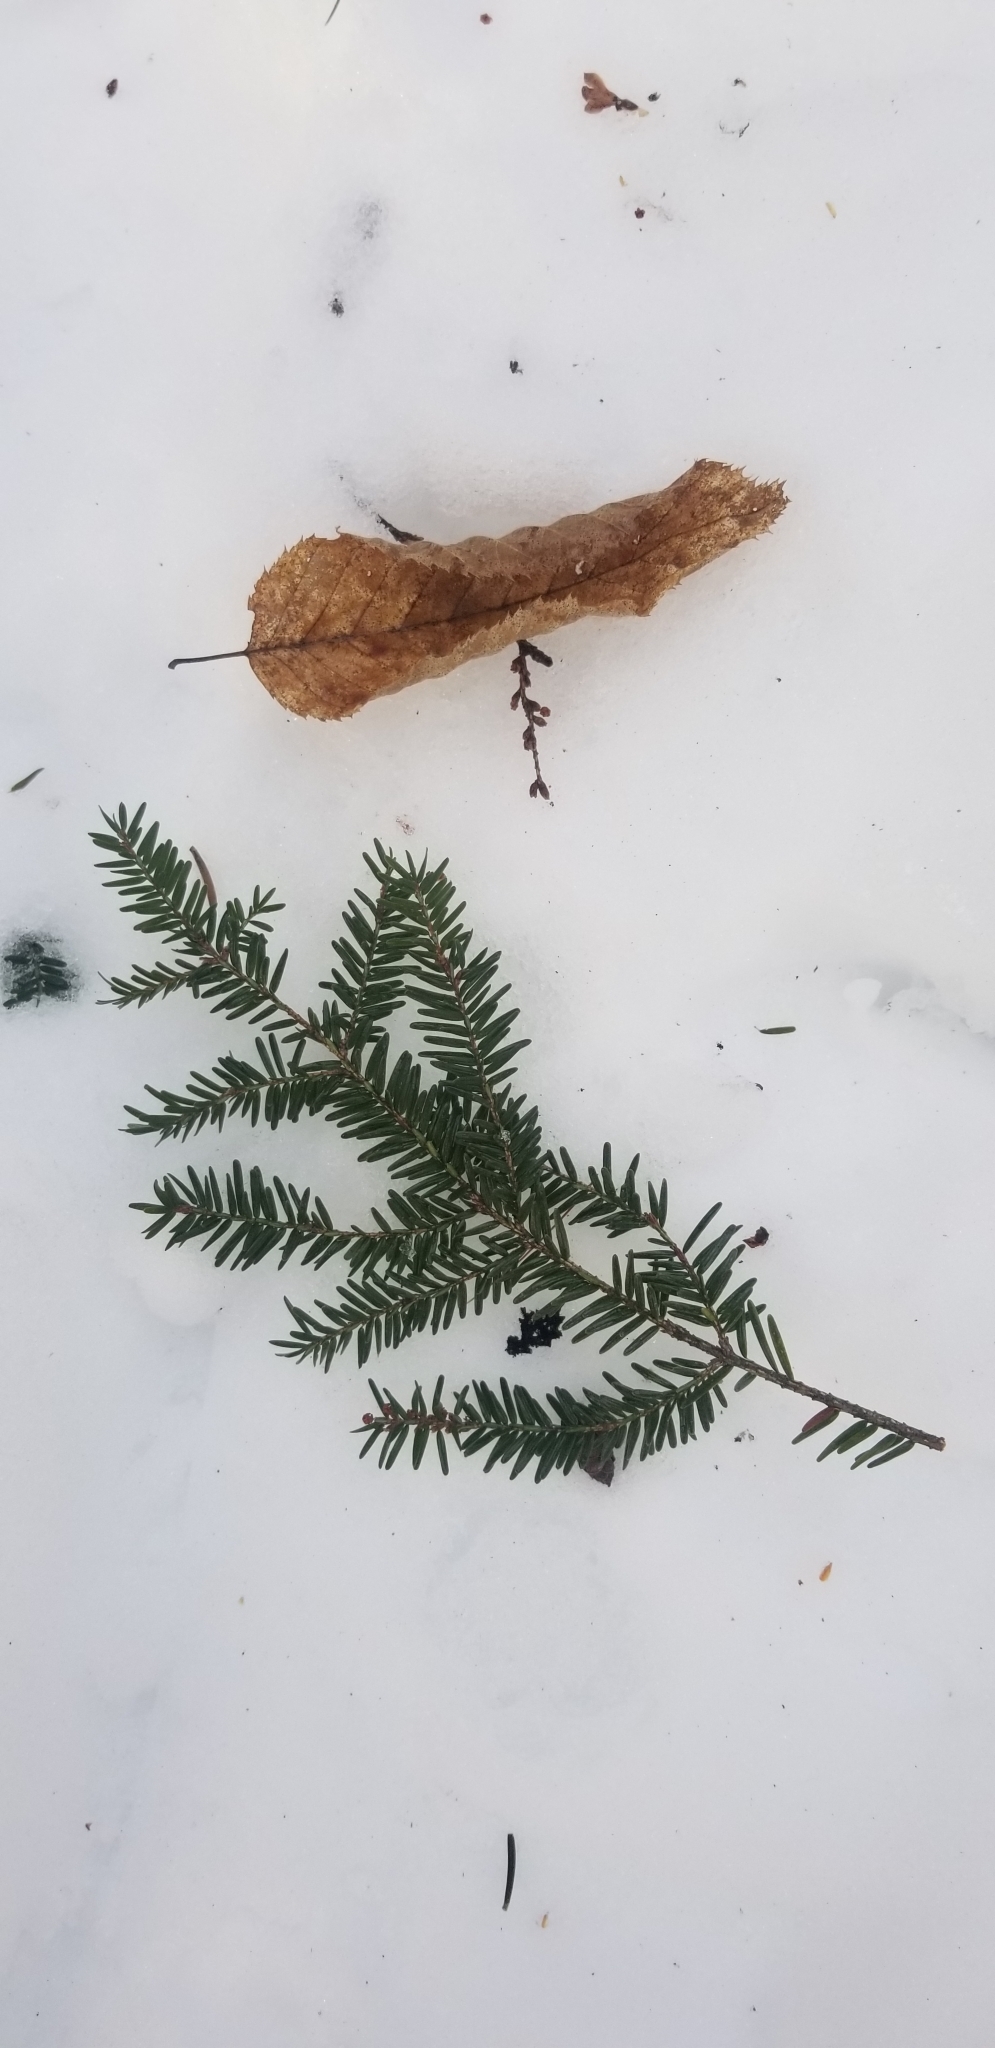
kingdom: Plantae
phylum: Tracheophyta
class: Pinopsida
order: Pinales
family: Pinaceae
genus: Tsuga
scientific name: Tsuga canadensis
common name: Eastern hemlock
